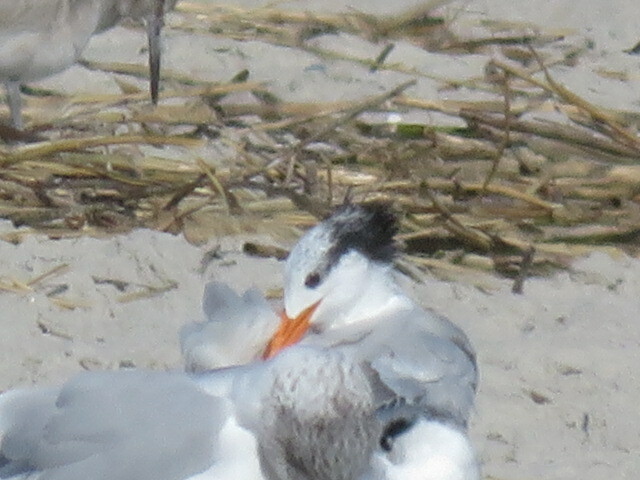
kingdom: Animalia
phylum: Chordata
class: Aves
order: Charadriiformes
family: Laridae
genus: Thalasseus
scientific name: Thalasseus maximus
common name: Royal tern
